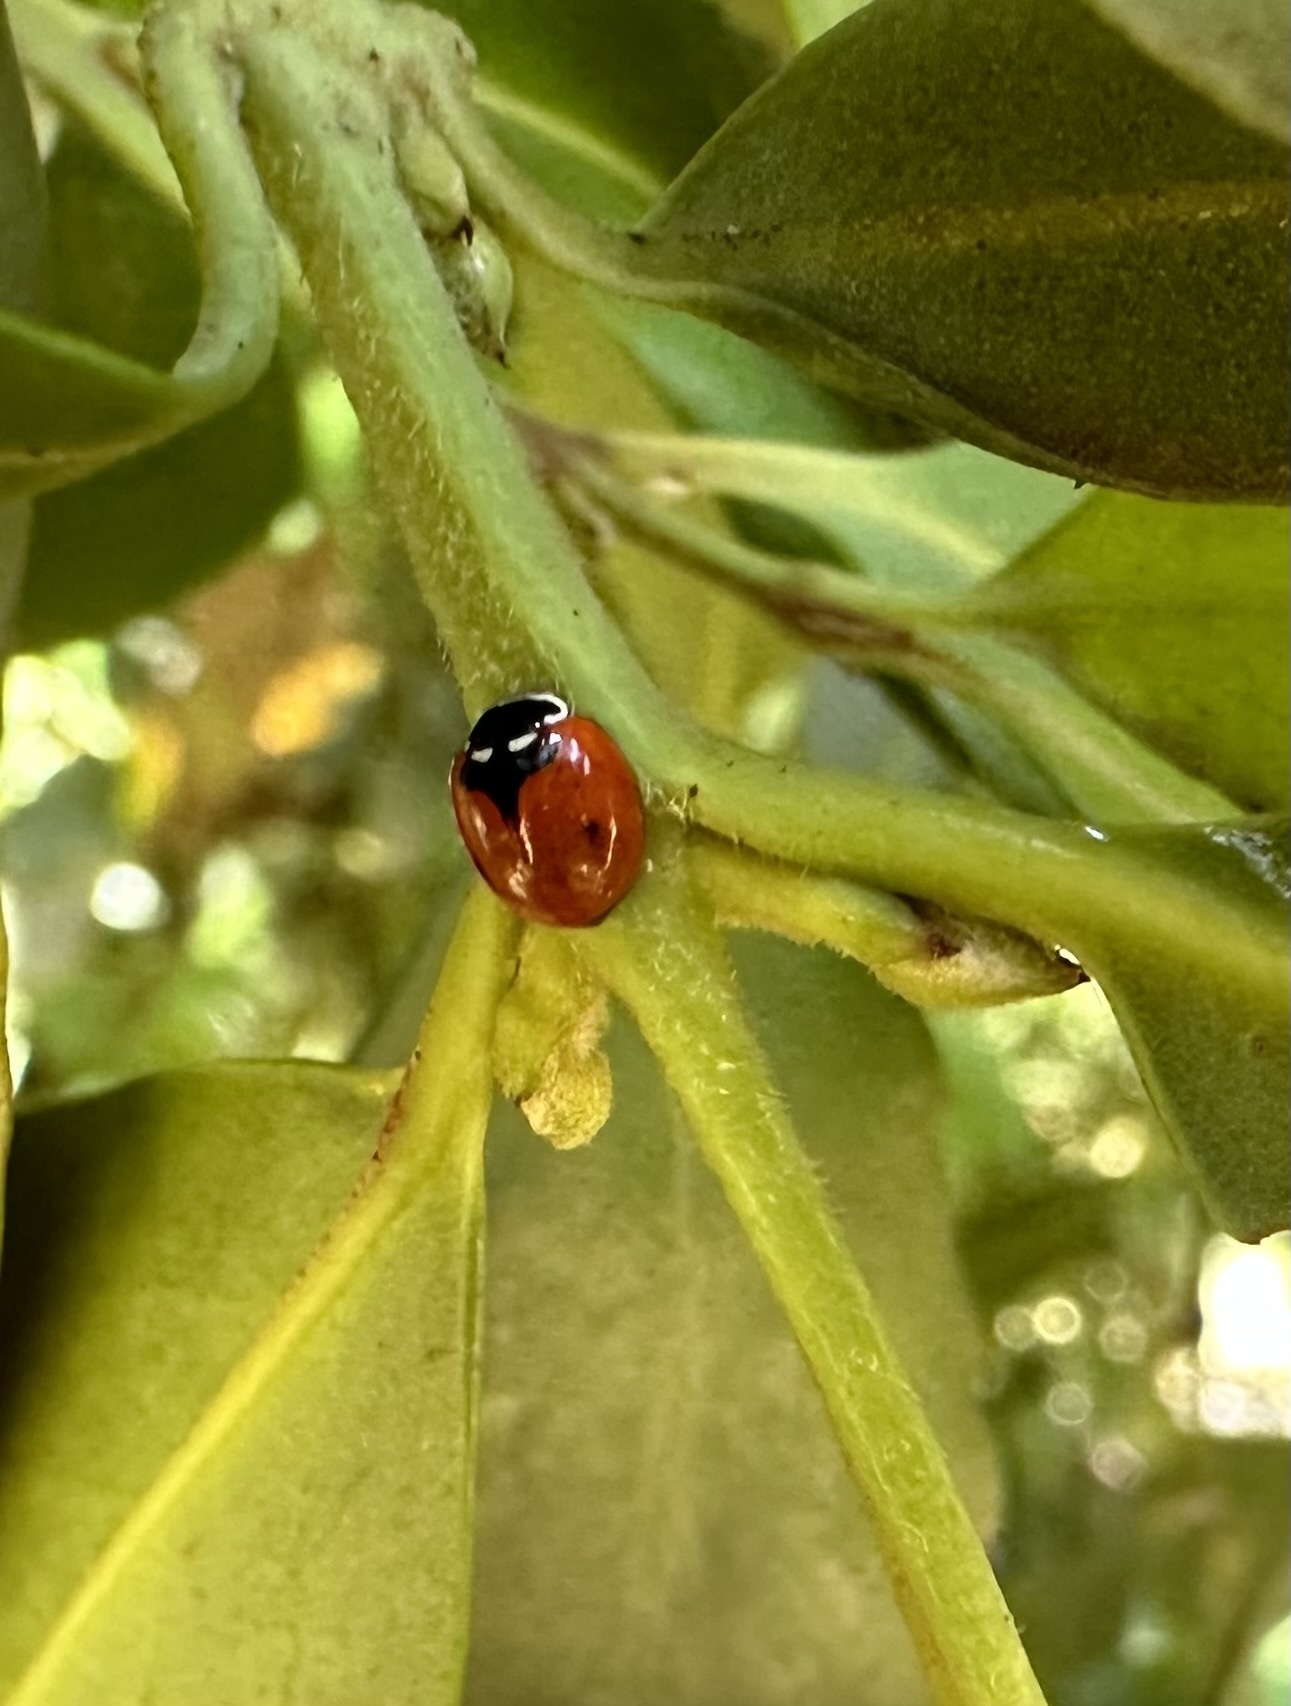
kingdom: Animalia
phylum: Arthropoda
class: Insecta
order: Coleoptera
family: Coccinellidae
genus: Adalia
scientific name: Adalia deficiens
